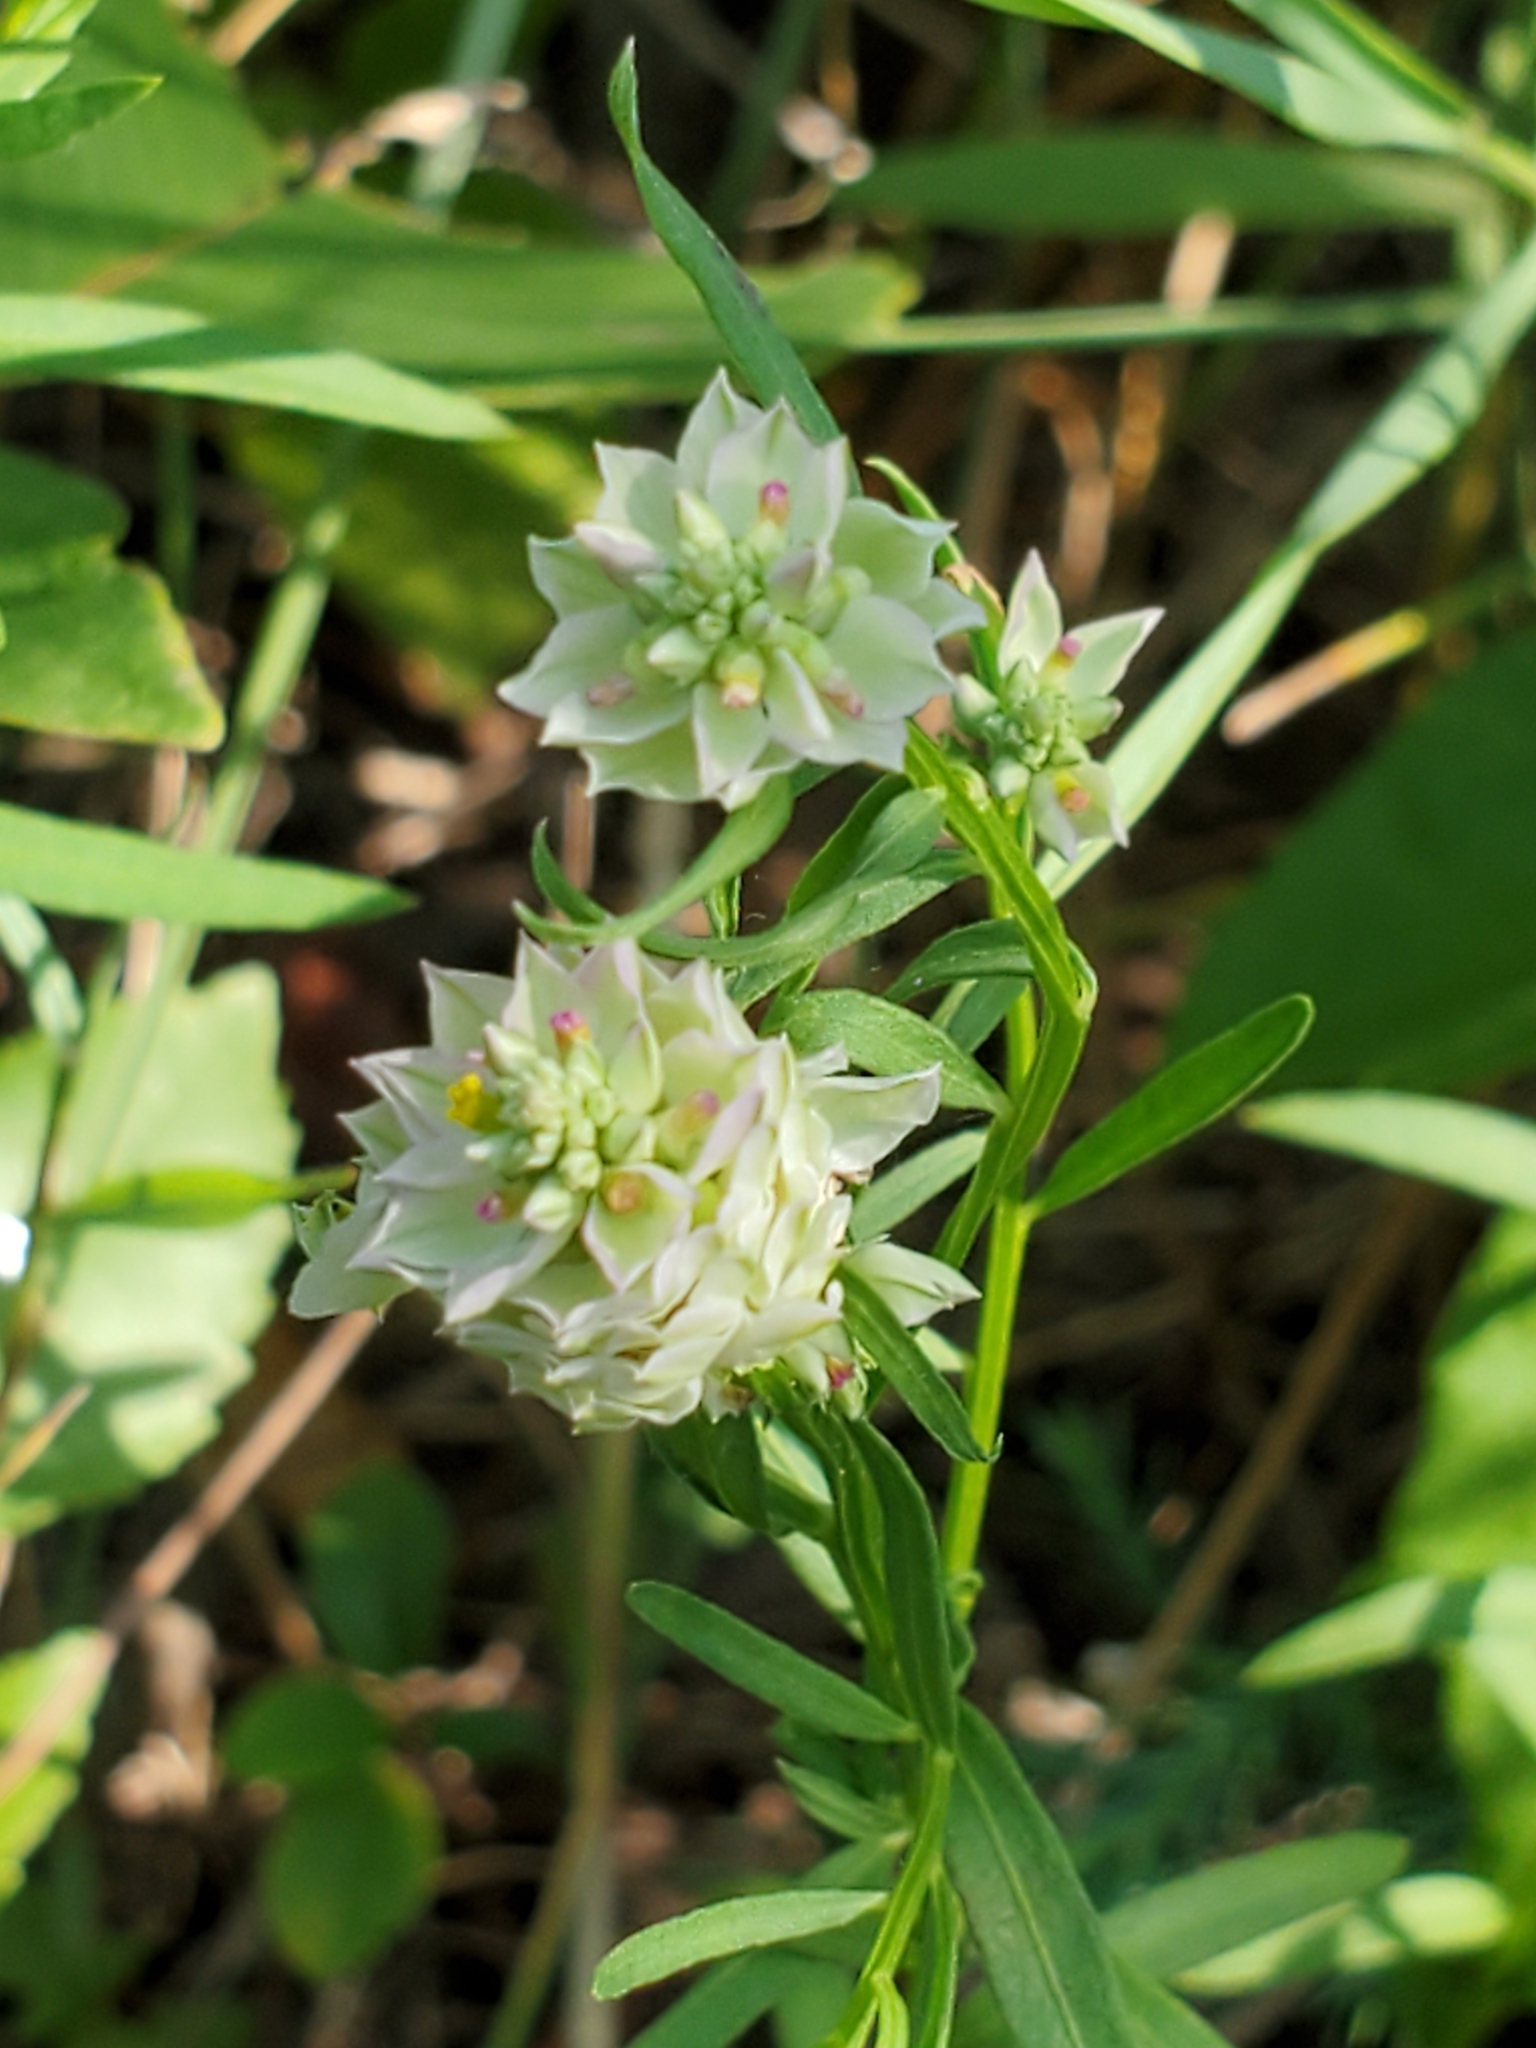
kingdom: Plantae
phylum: Tracheophyta
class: Magnoliopsida
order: Fabales
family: Polygalaceae
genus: Polygala
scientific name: Polygala sanguinea
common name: Blood milkwort
